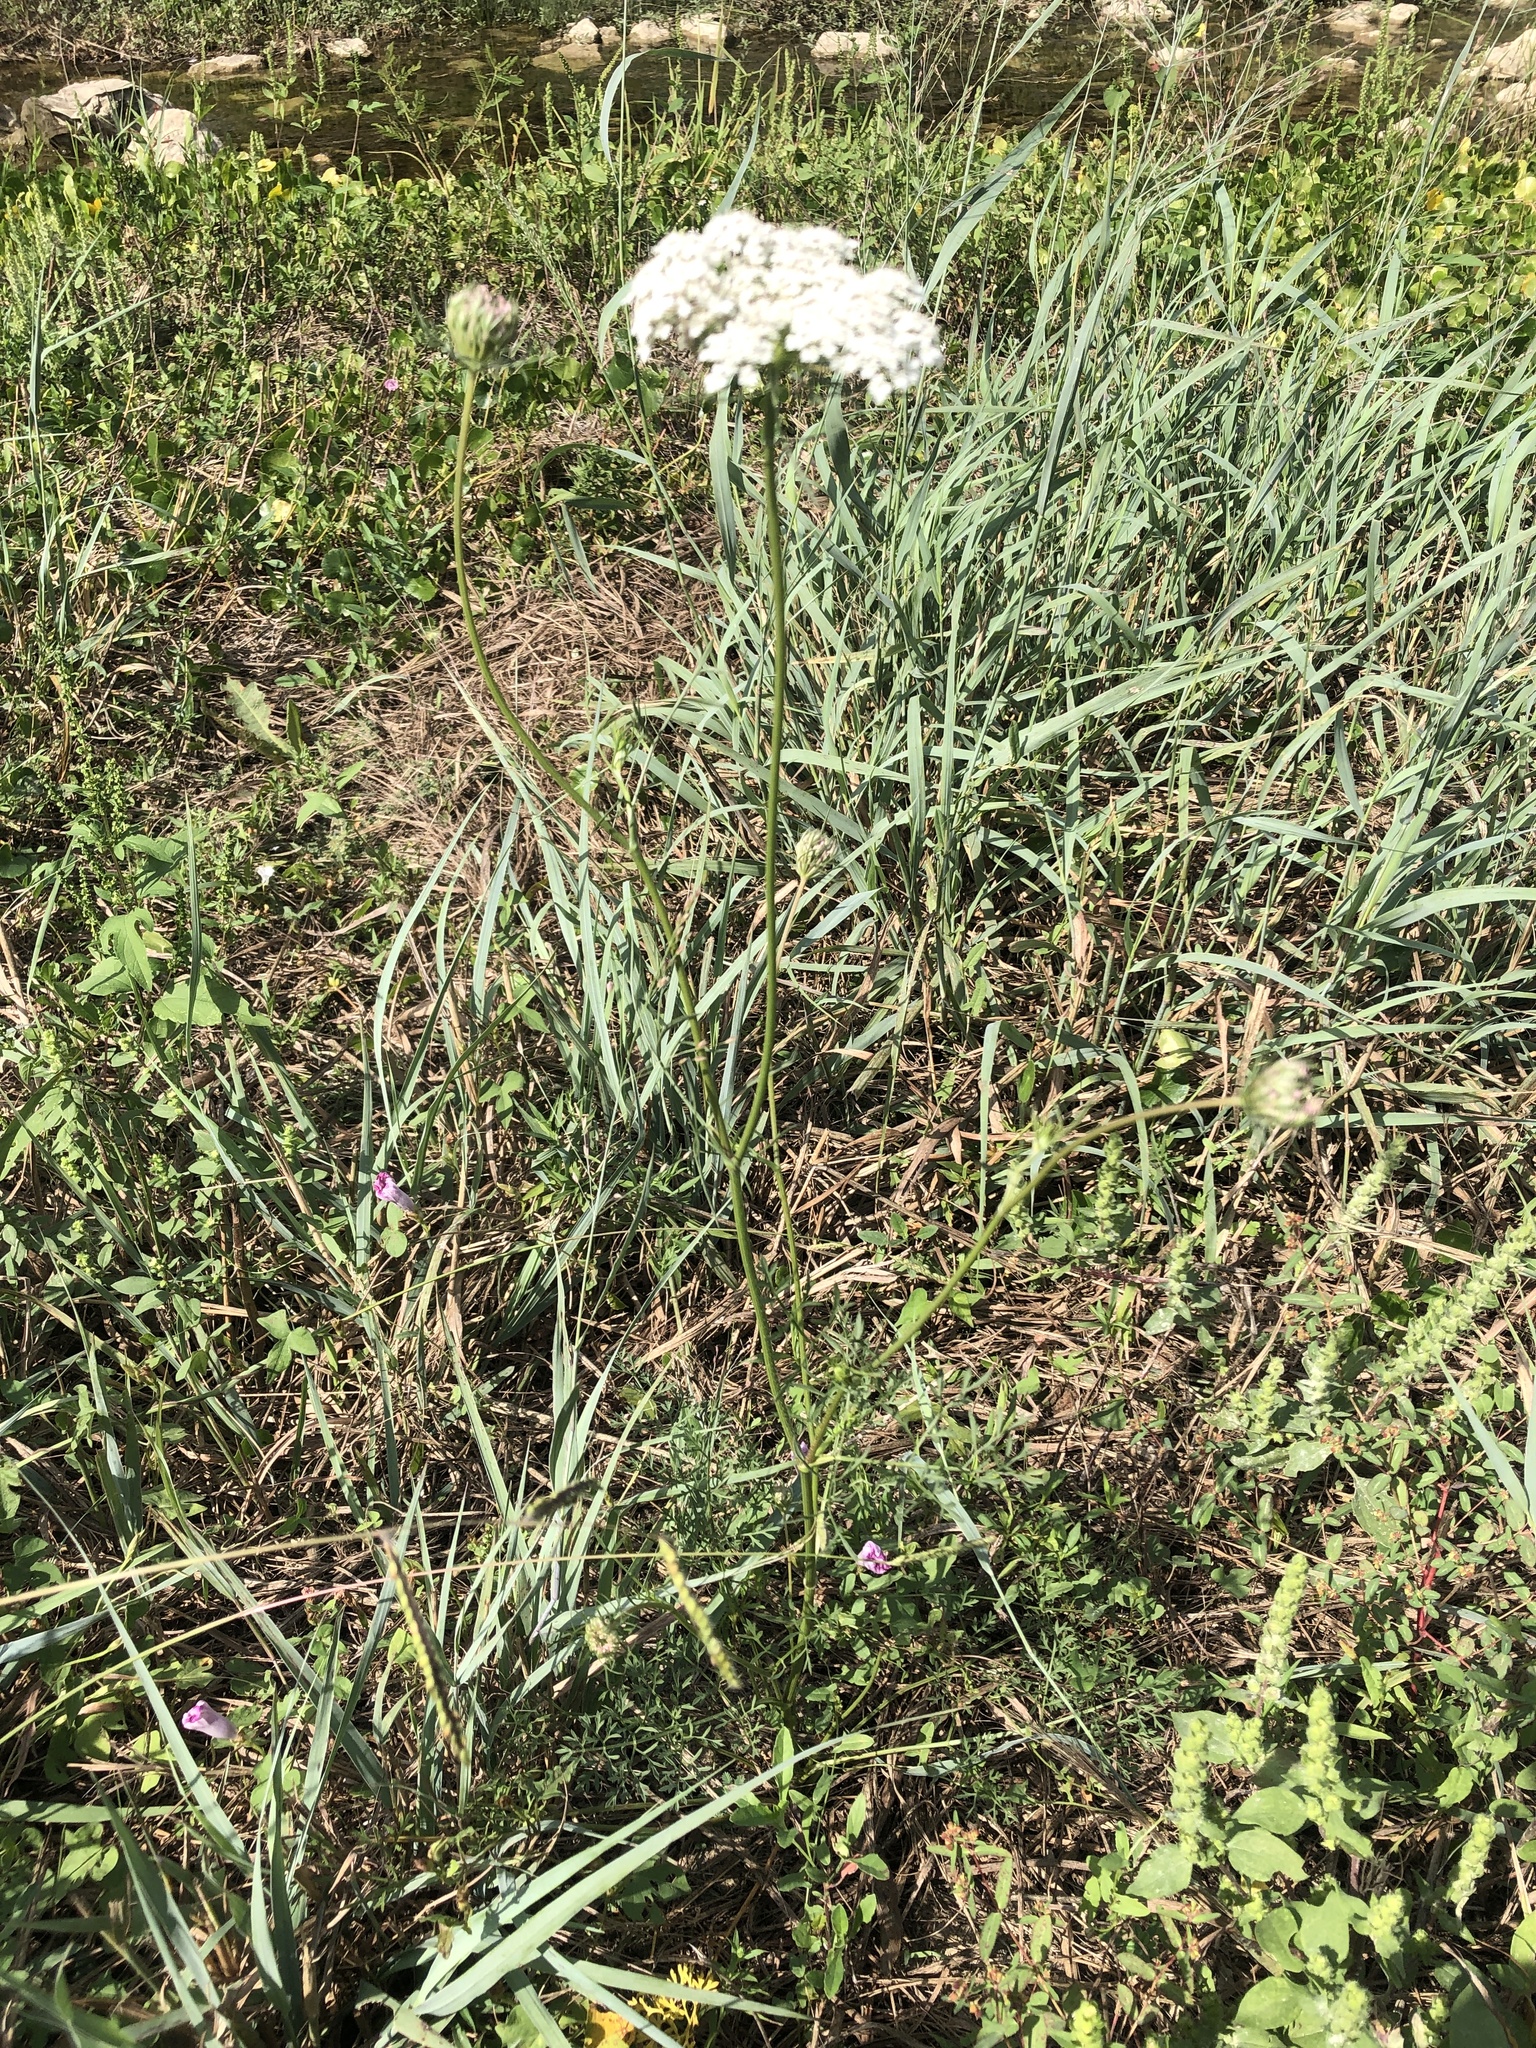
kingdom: Plantae
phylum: Tracheophyta
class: Magnoliopsida
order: Apiales
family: Apiaceae
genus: Daucus
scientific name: Daucus carota
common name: Wild carrot
